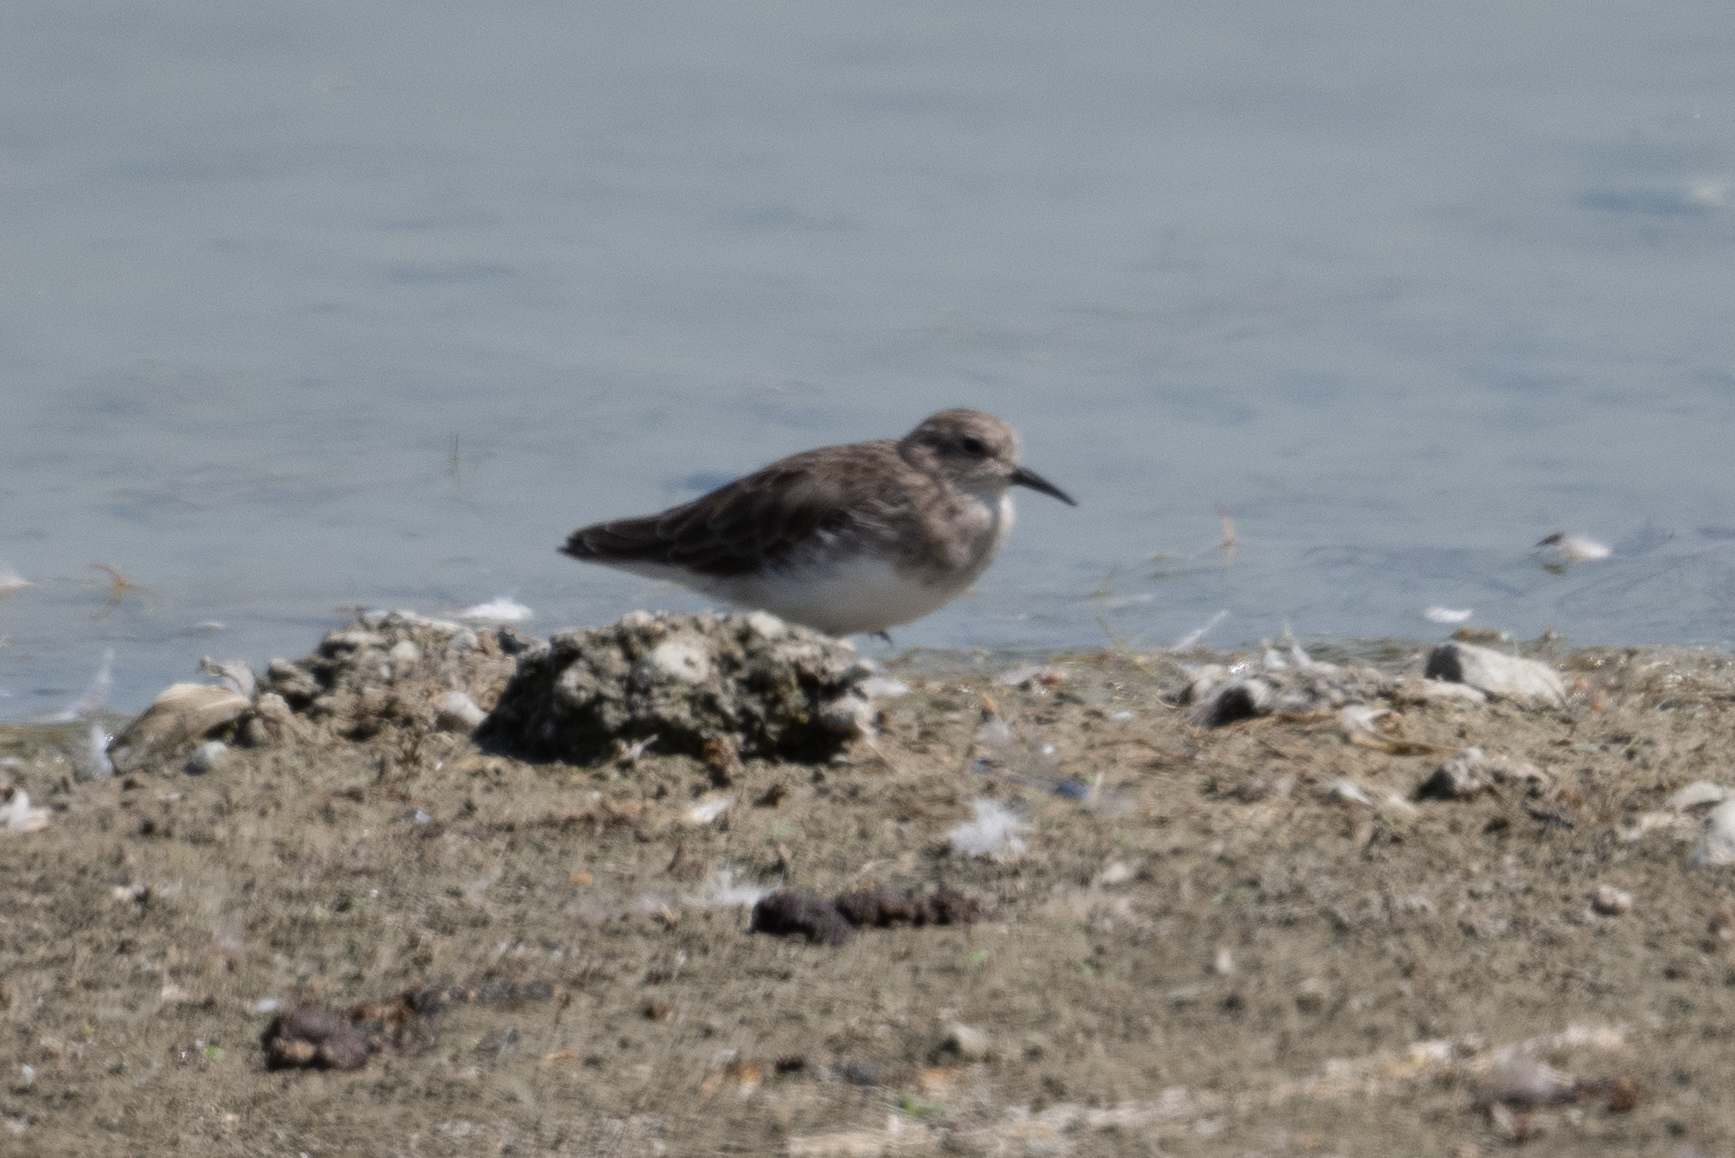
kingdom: Animalia
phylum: Chordata
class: Aves
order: Charadriiformes
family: Scolopacidae
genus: Calidris
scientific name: Calidris minutilla
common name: Least sandpiper
